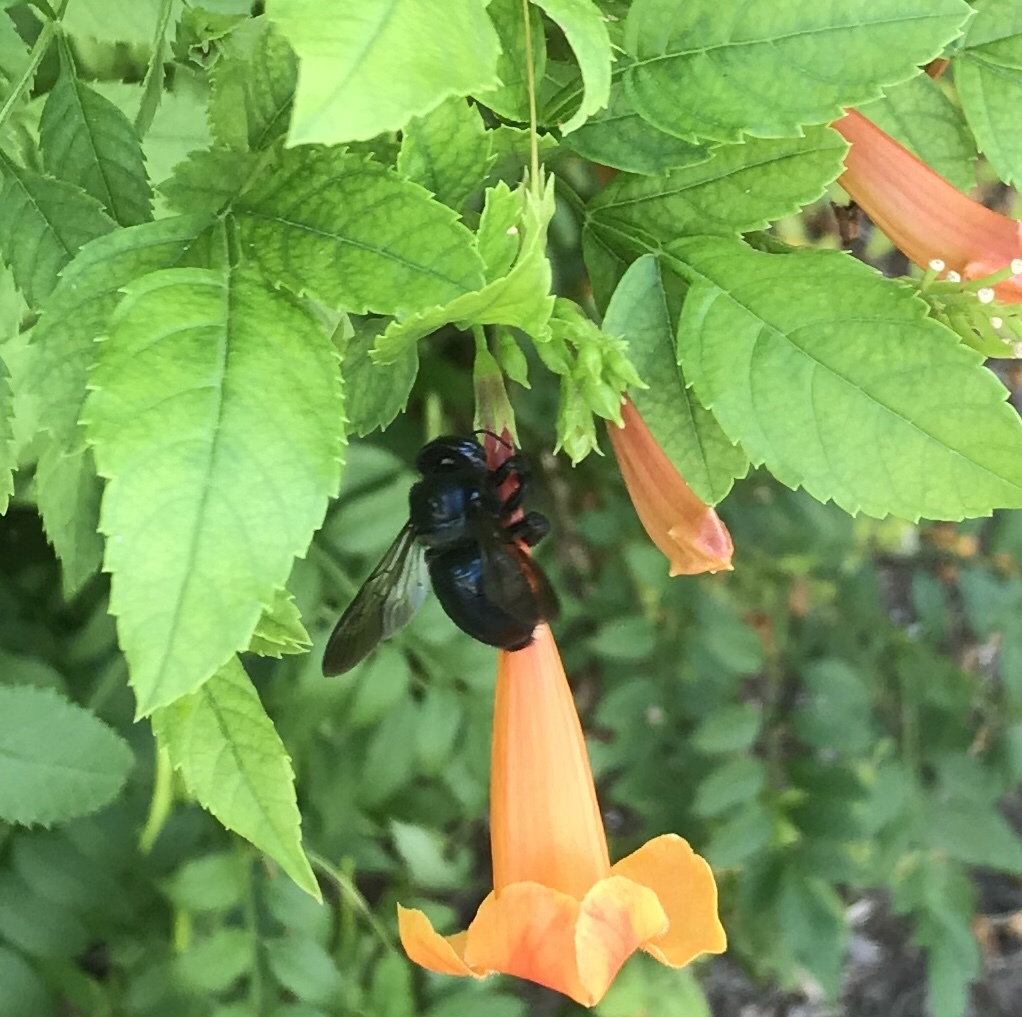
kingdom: Animalia
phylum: Arthropoda
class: Insecta
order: Hymenoptera
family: Apidae
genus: Xylocopa
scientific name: Xylocopa micans
